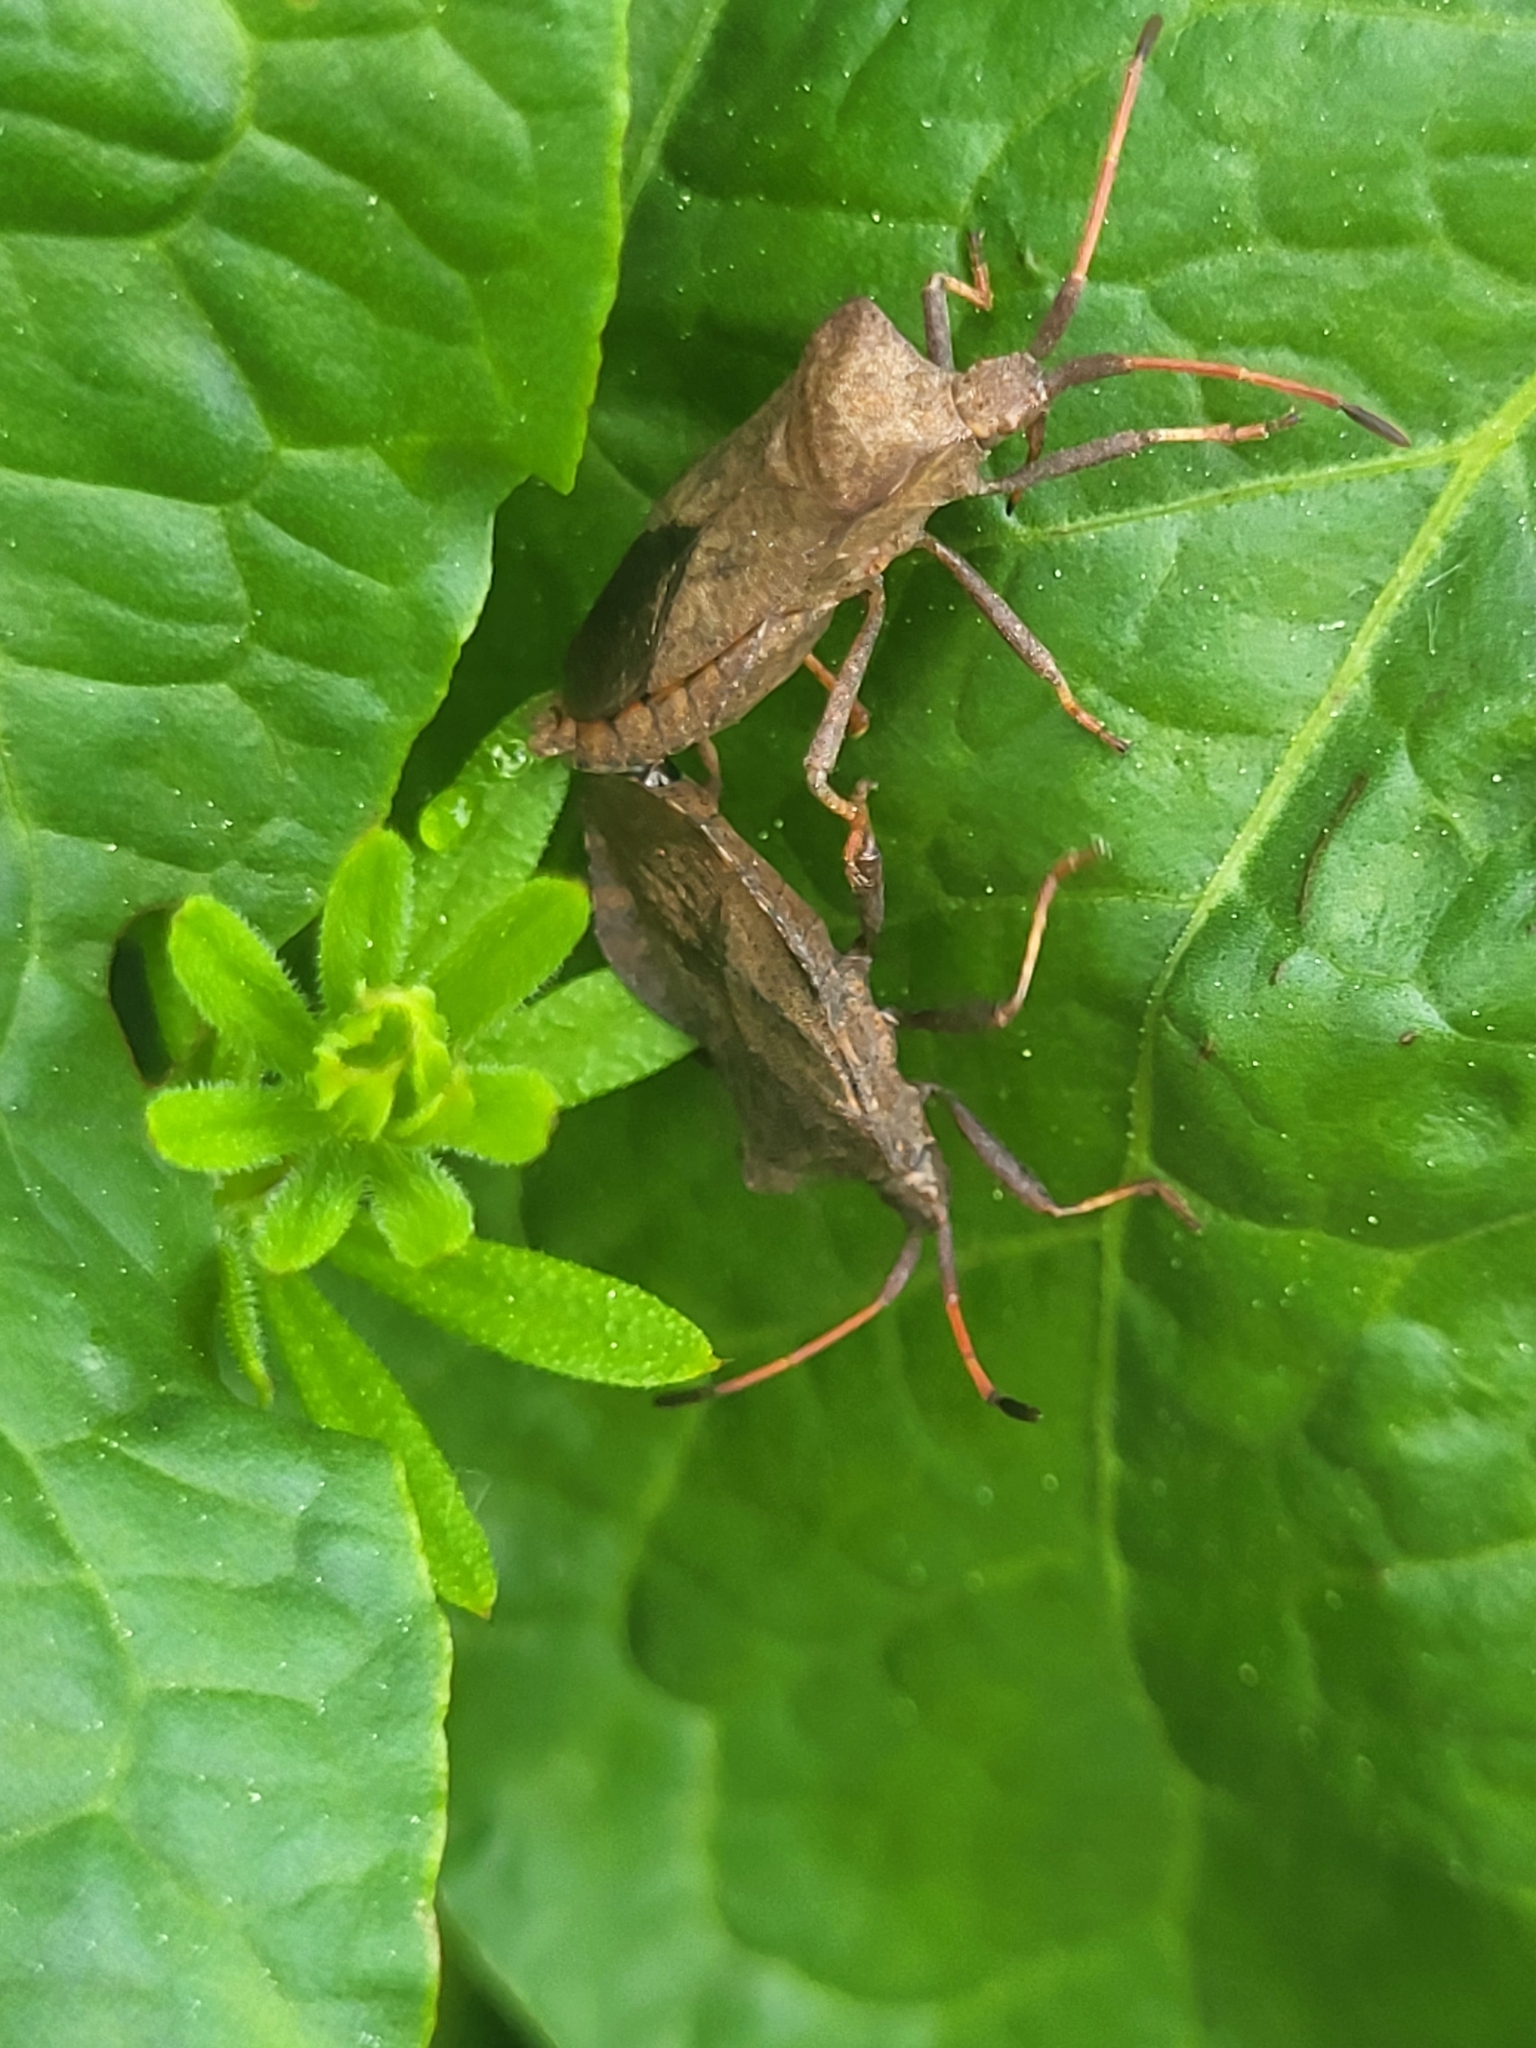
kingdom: Animalia
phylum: Arthropoda
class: Insecta
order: Hemiptera
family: Coreidae
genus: Coreus
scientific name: Coreus marginatus
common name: Dock bug
